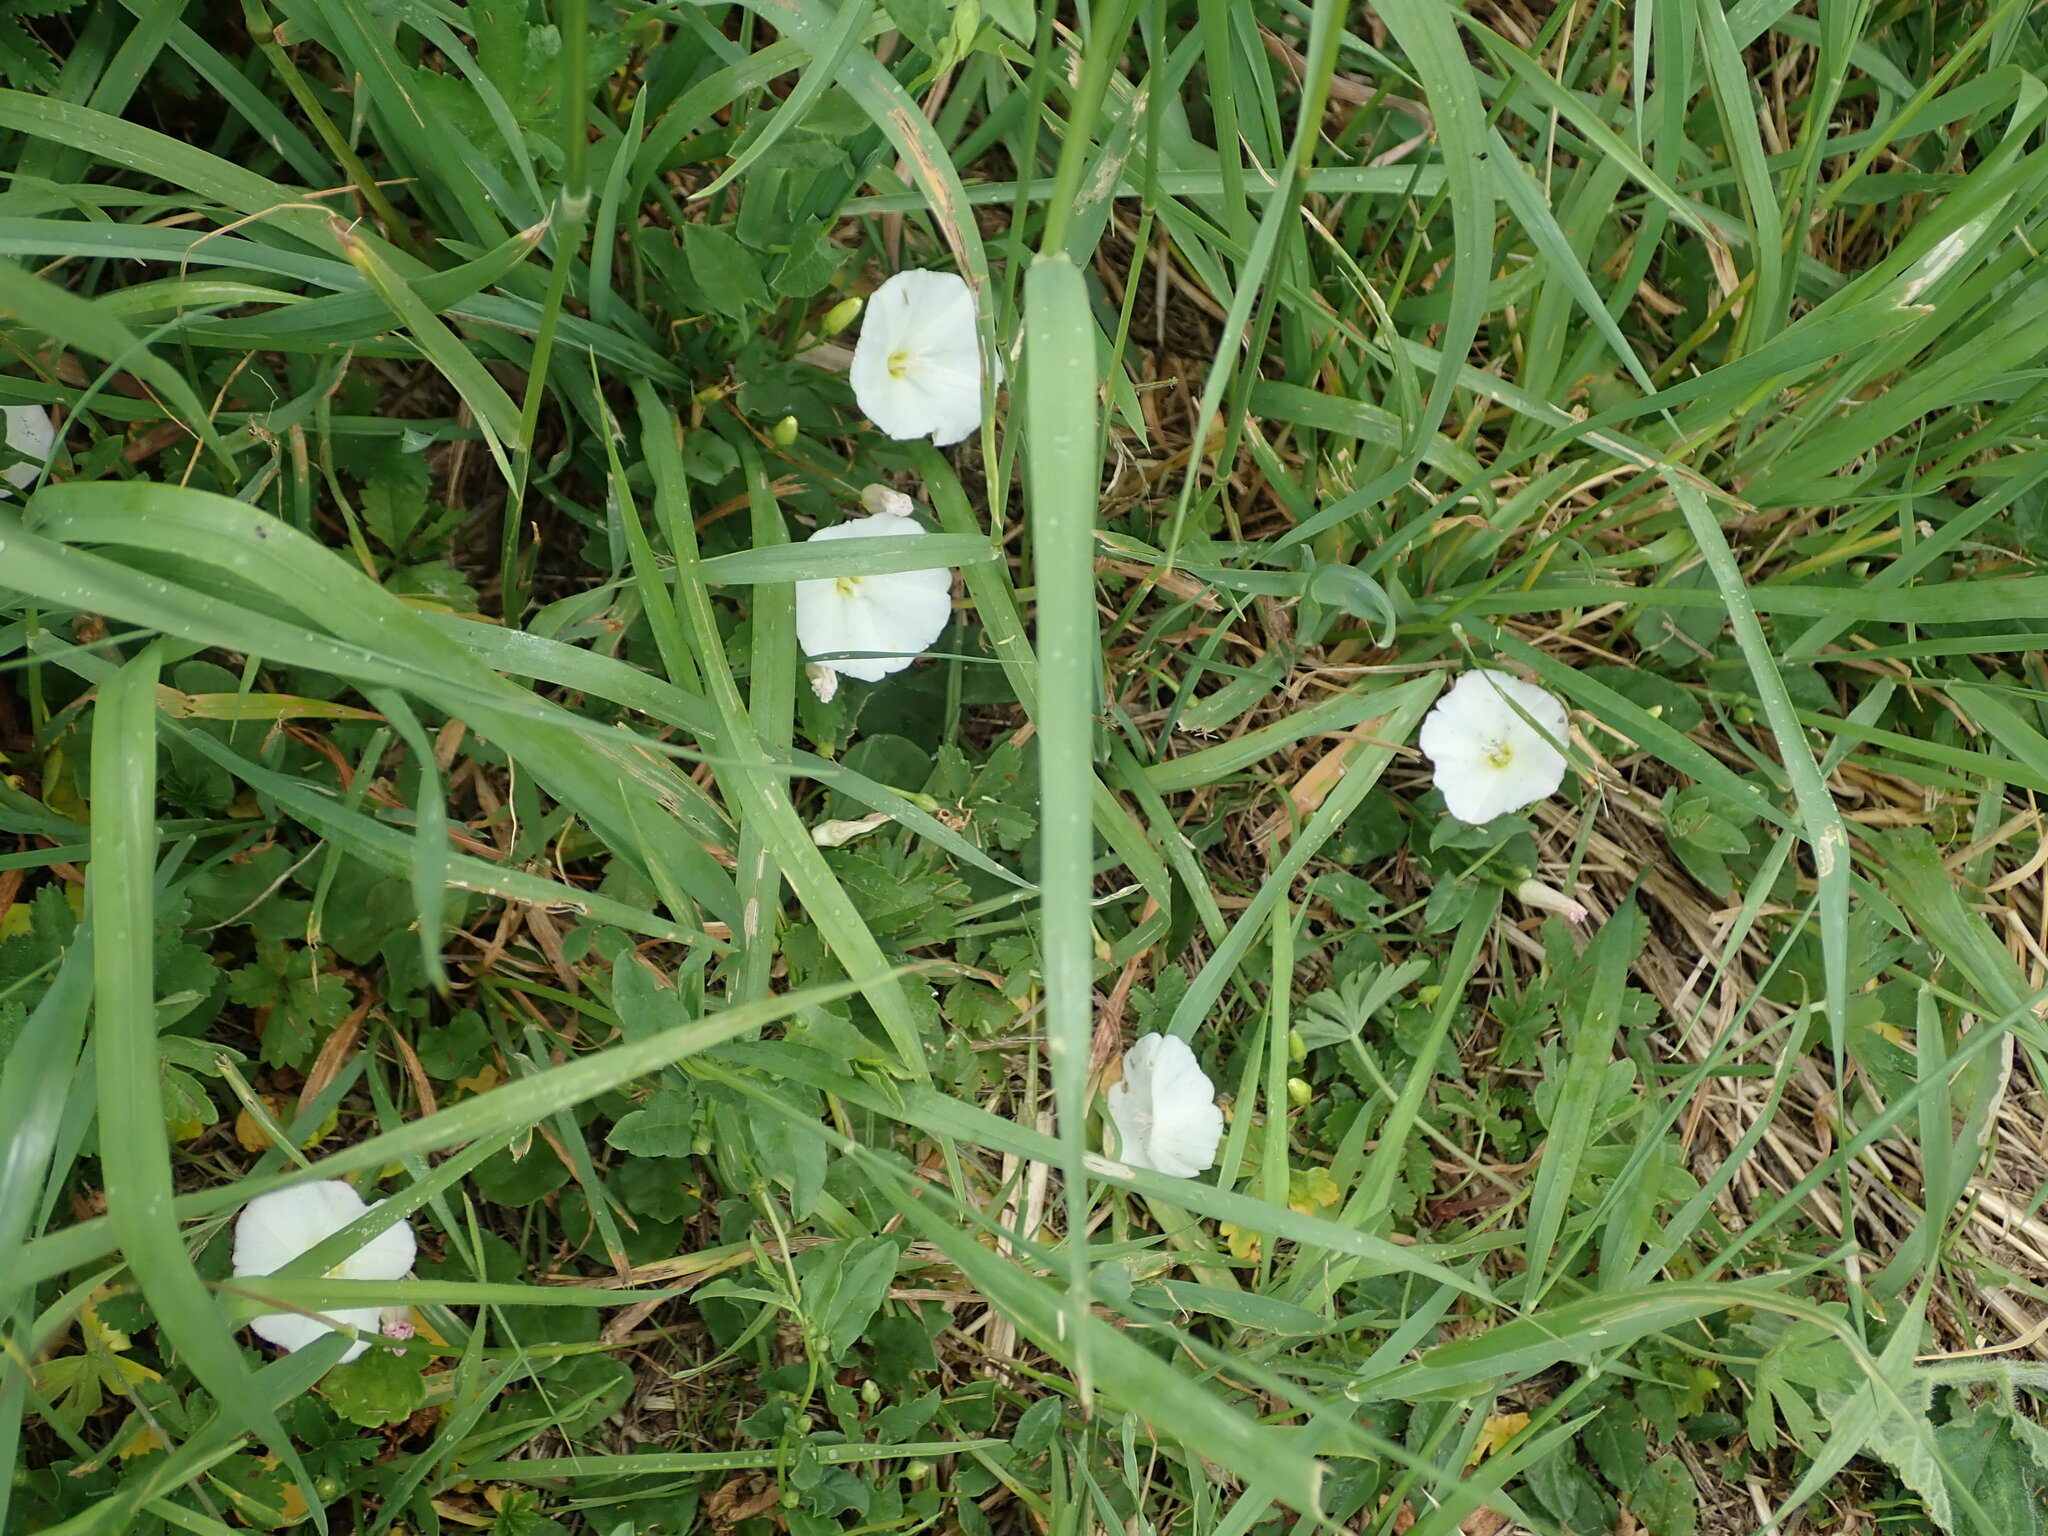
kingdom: Plantae
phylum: Tracheophyta
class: Magnoliopsida
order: Solanales
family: Convolvulaceae
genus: Convolvulus
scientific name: Convolvulus arvensis
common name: Field bindweed
